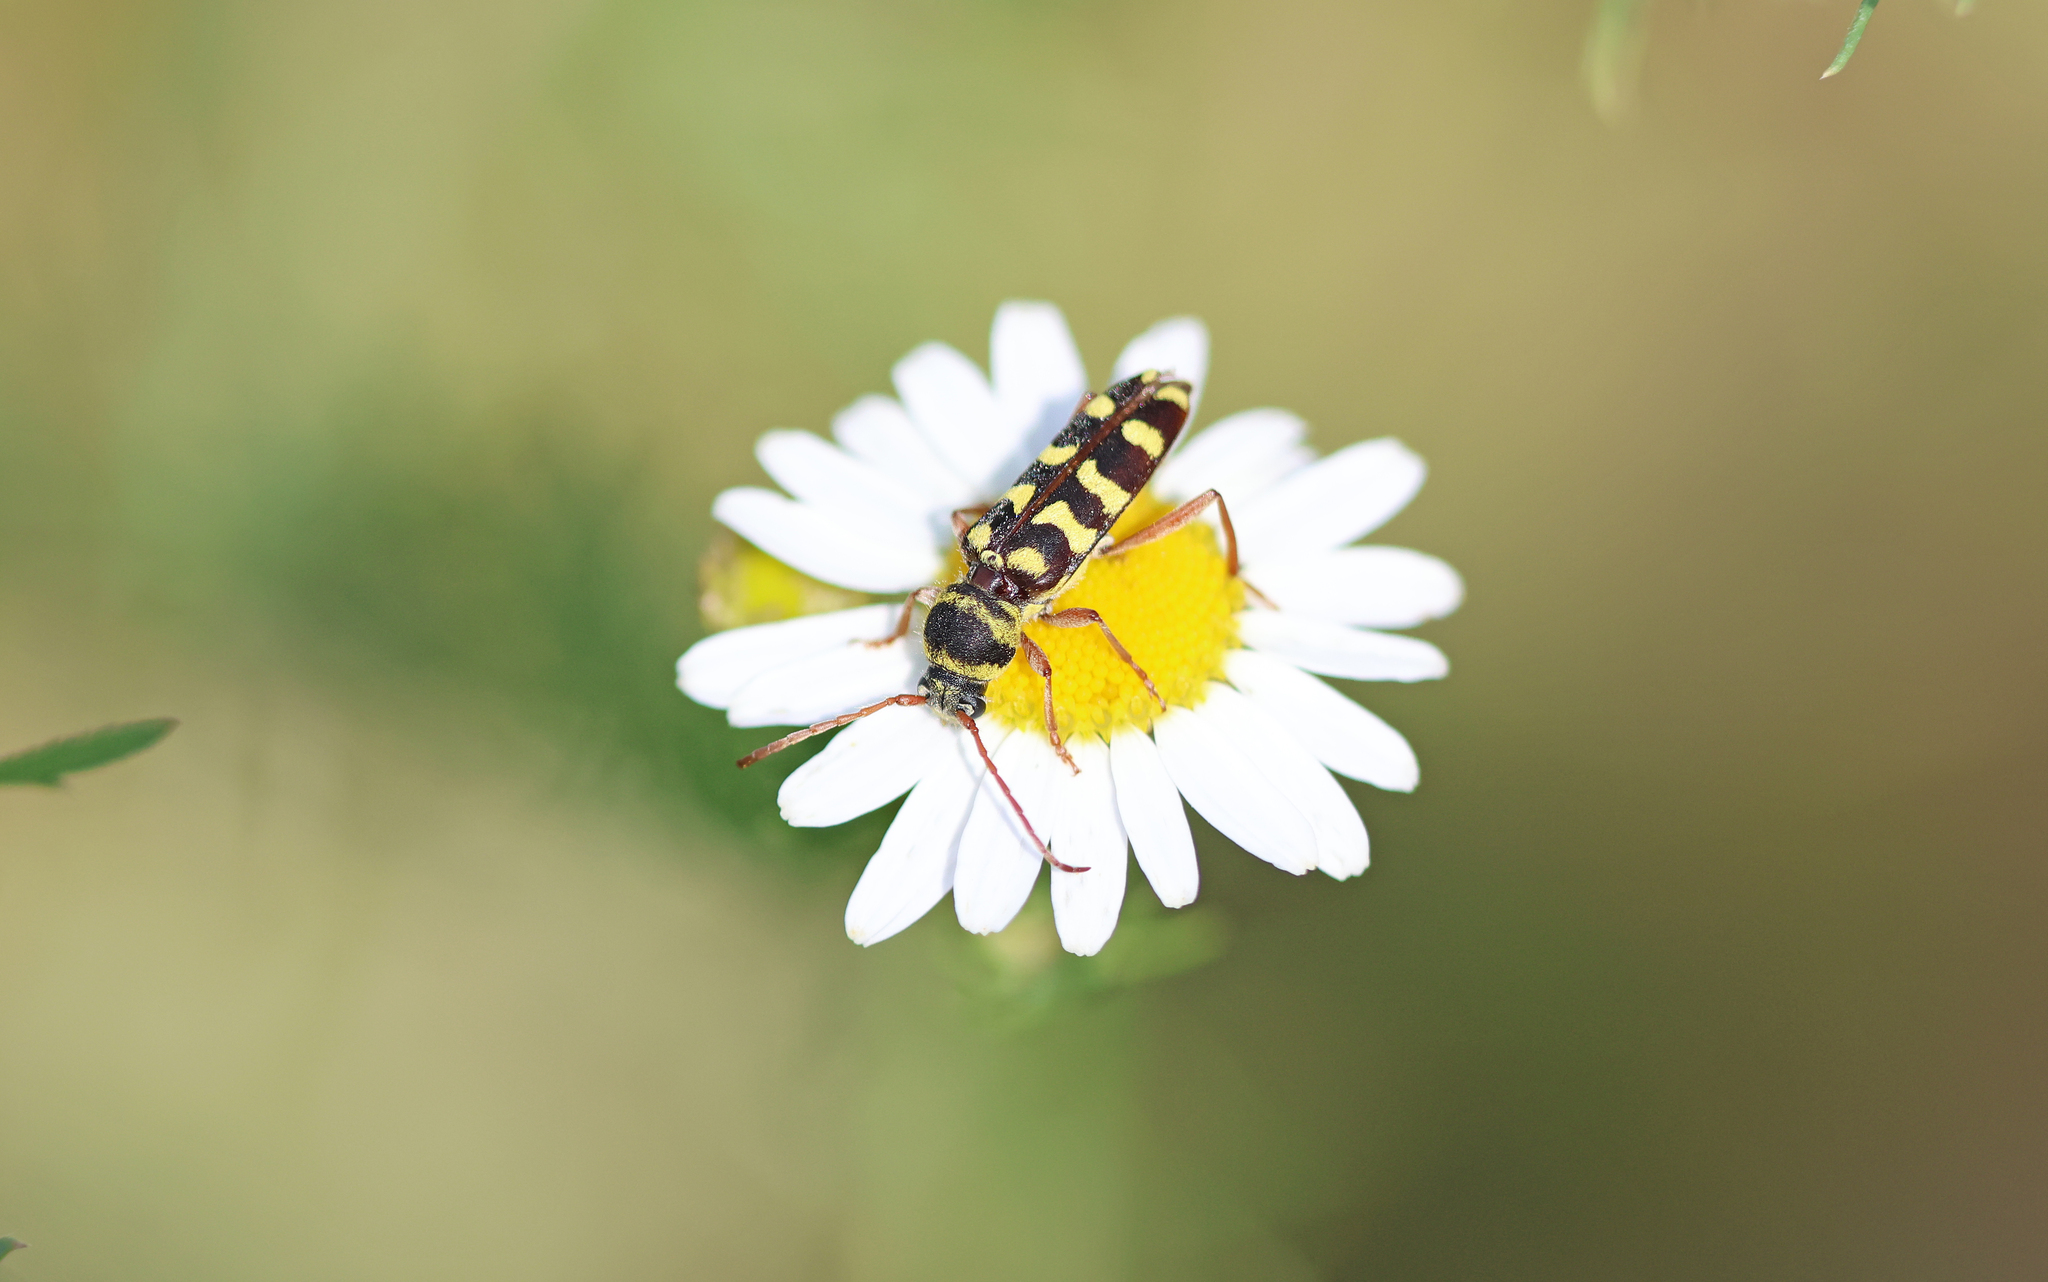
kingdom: Animalia
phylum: Arthropoda
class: Insecta
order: Coleoptera
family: Cerambycidae
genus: Plagionotus
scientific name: Plagionotus floralis
